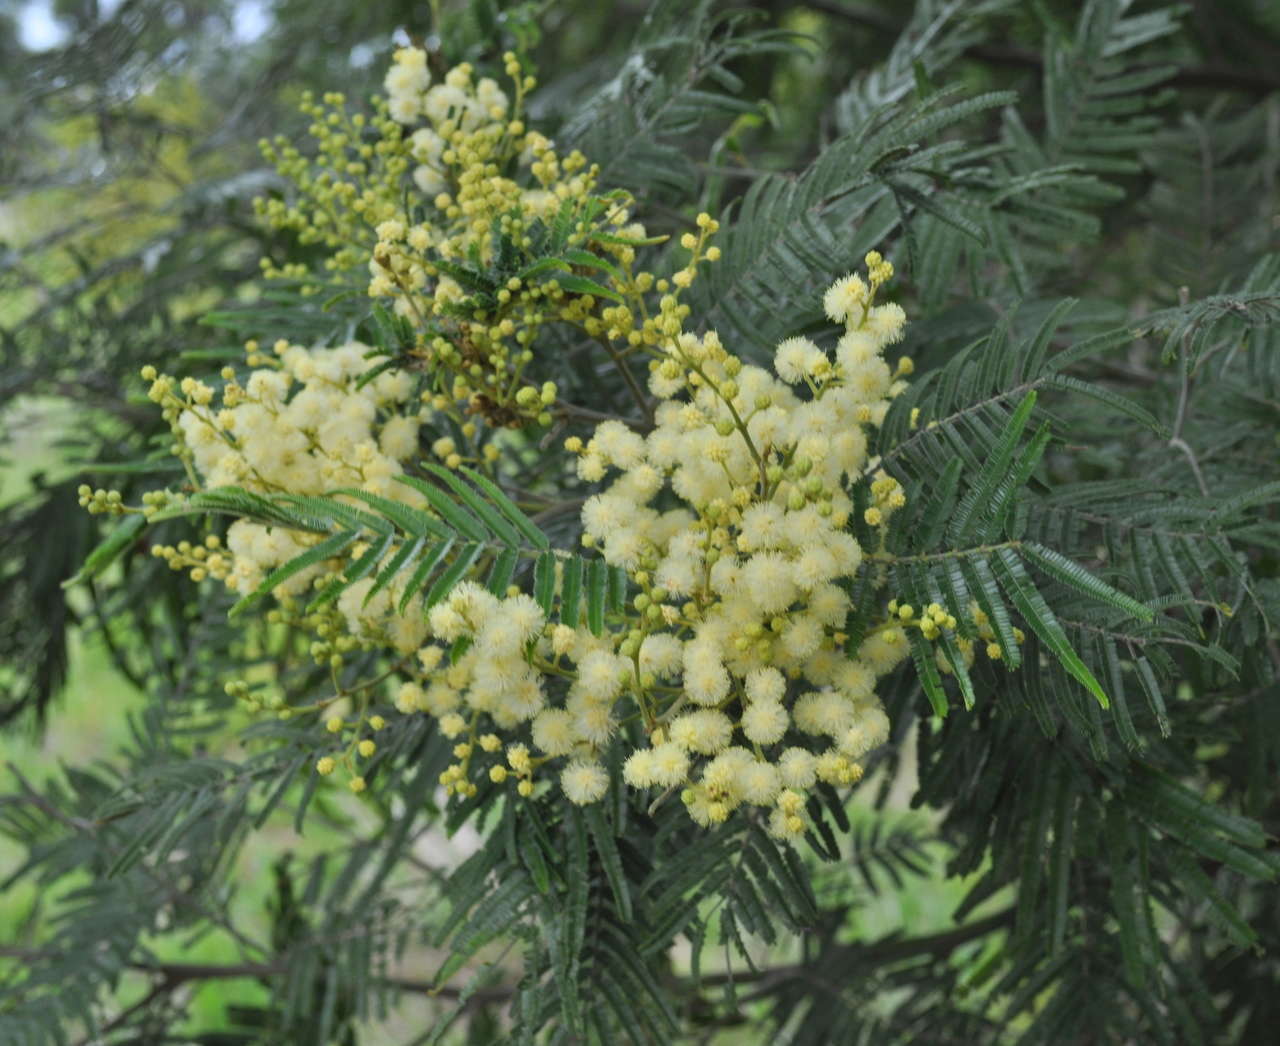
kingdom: Plantae
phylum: Tracheophyta
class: Magnoliopsida
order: Fabales
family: Fabaceae
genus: Acacia
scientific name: Acacia mearnsii
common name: Black wattle
